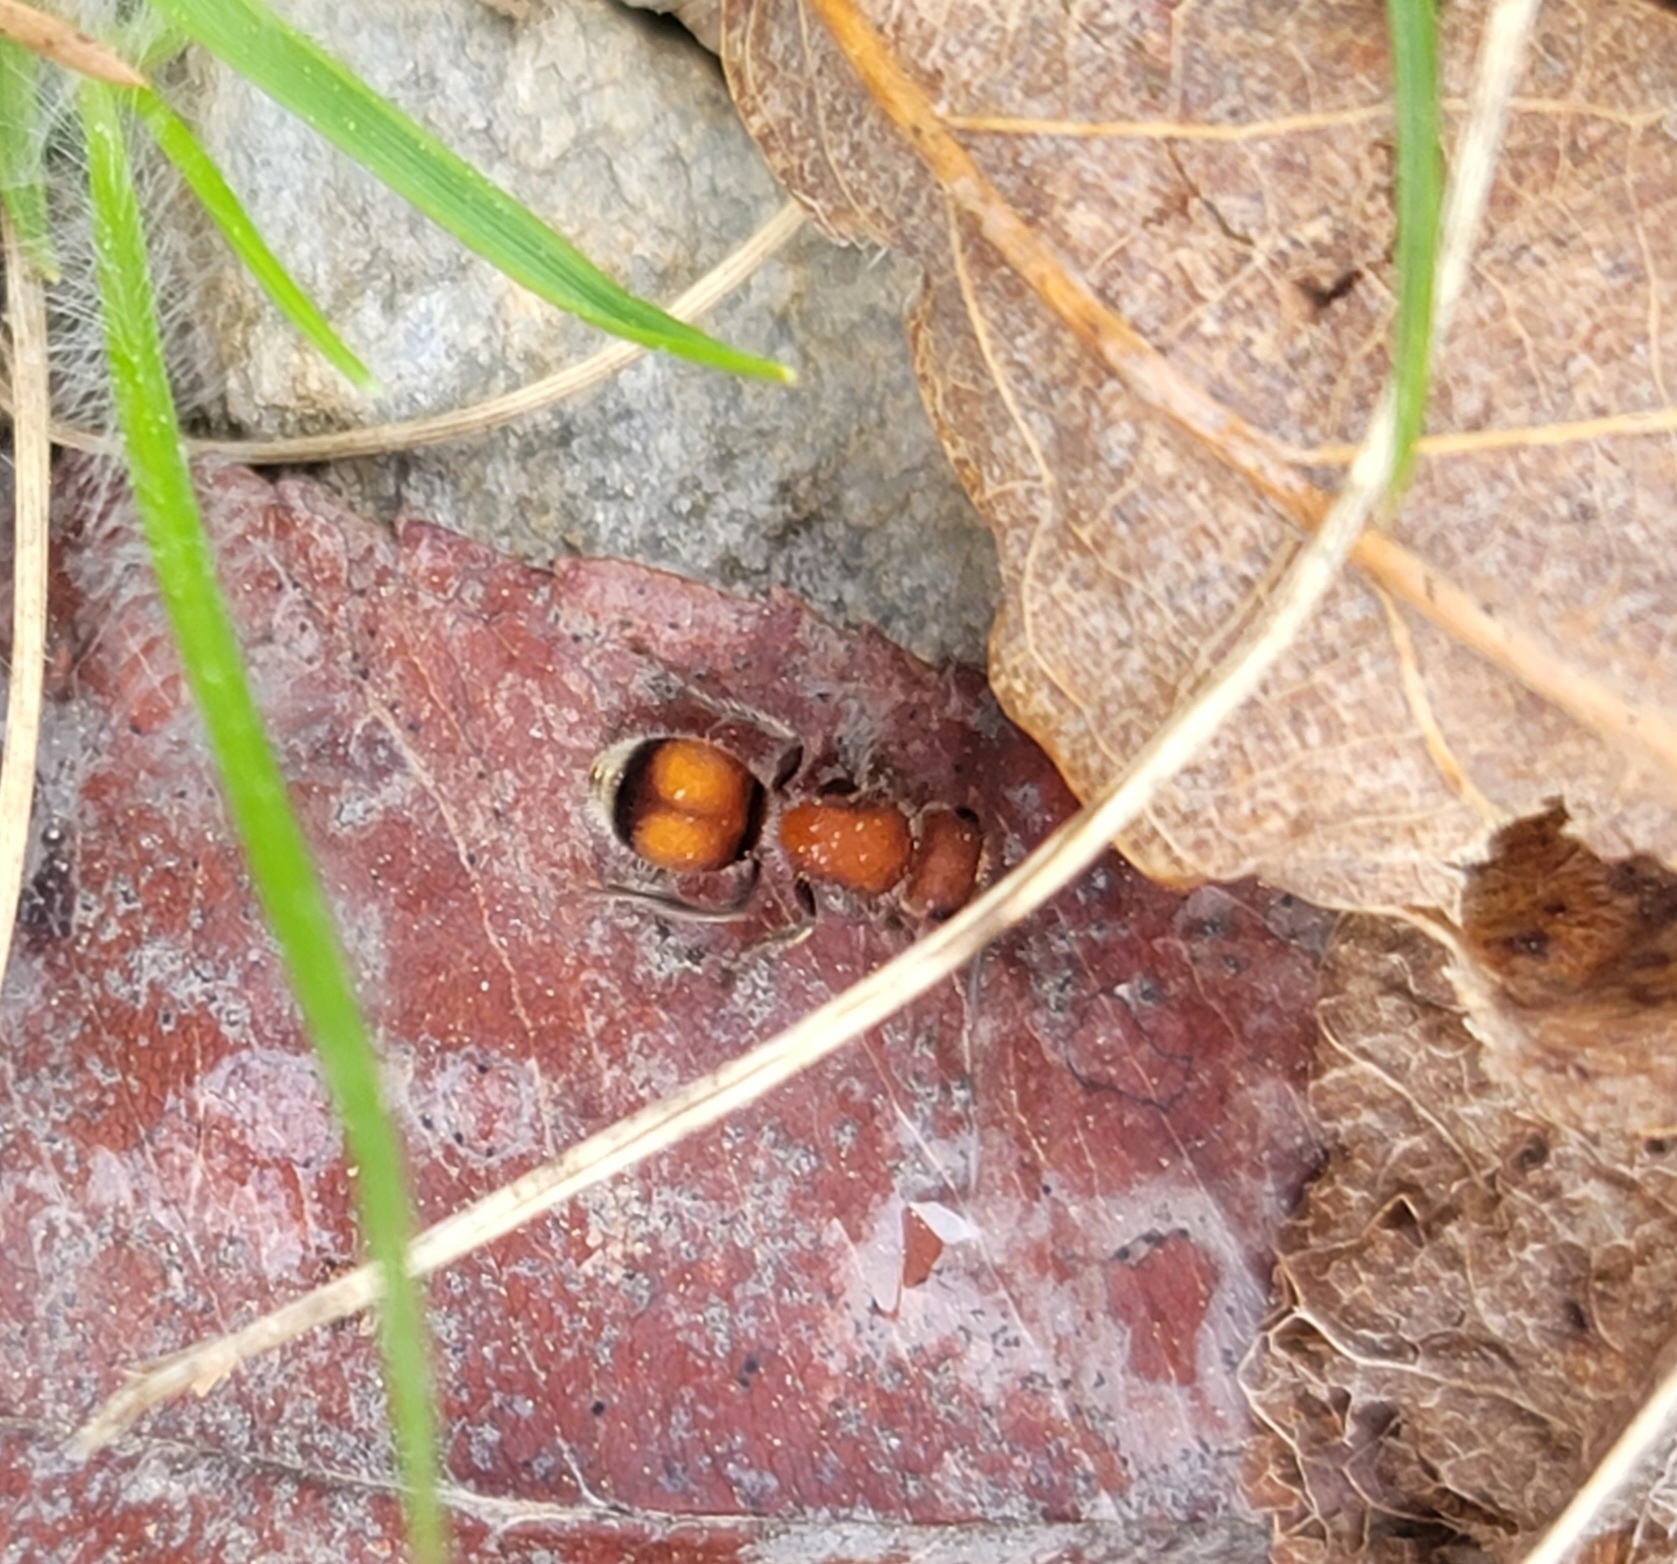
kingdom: Animalia
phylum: Arthropoda
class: Insecta
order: Hymenoptera
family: Mutillidae
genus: Pseudomethoca
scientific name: Pseudomethoca
